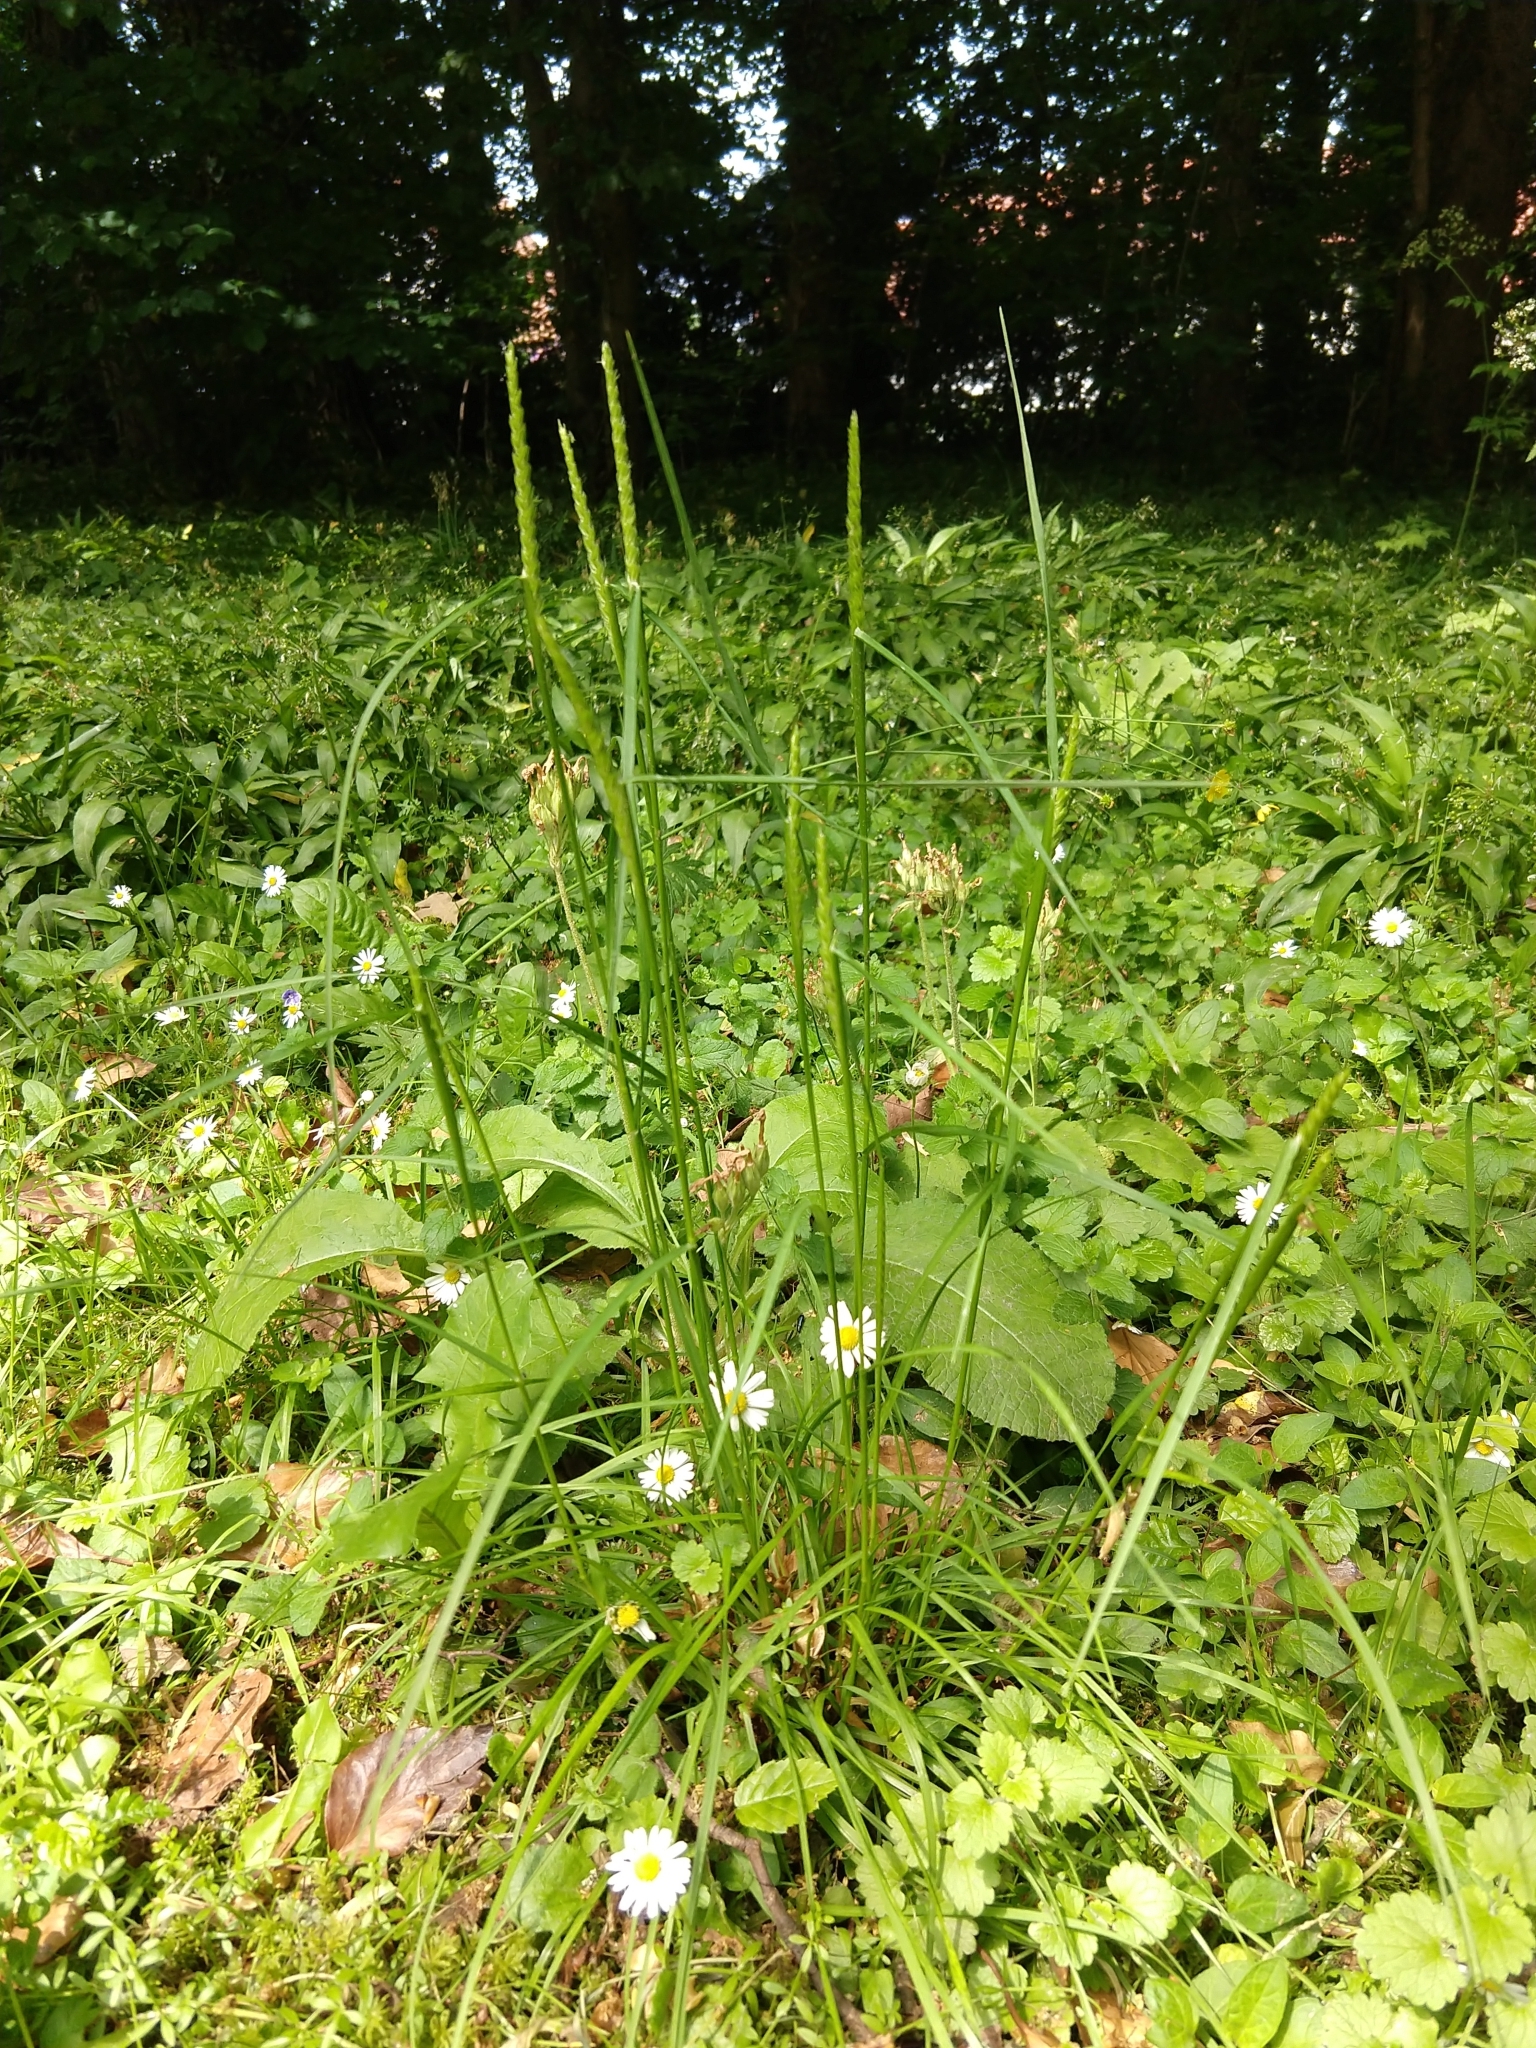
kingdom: Plantae
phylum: Tracheophyta
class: Liliopsida
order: Poales
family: Poaceae
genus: Cynosurus
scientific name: Cynosurus cristatus
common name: Crested dog's-tail
